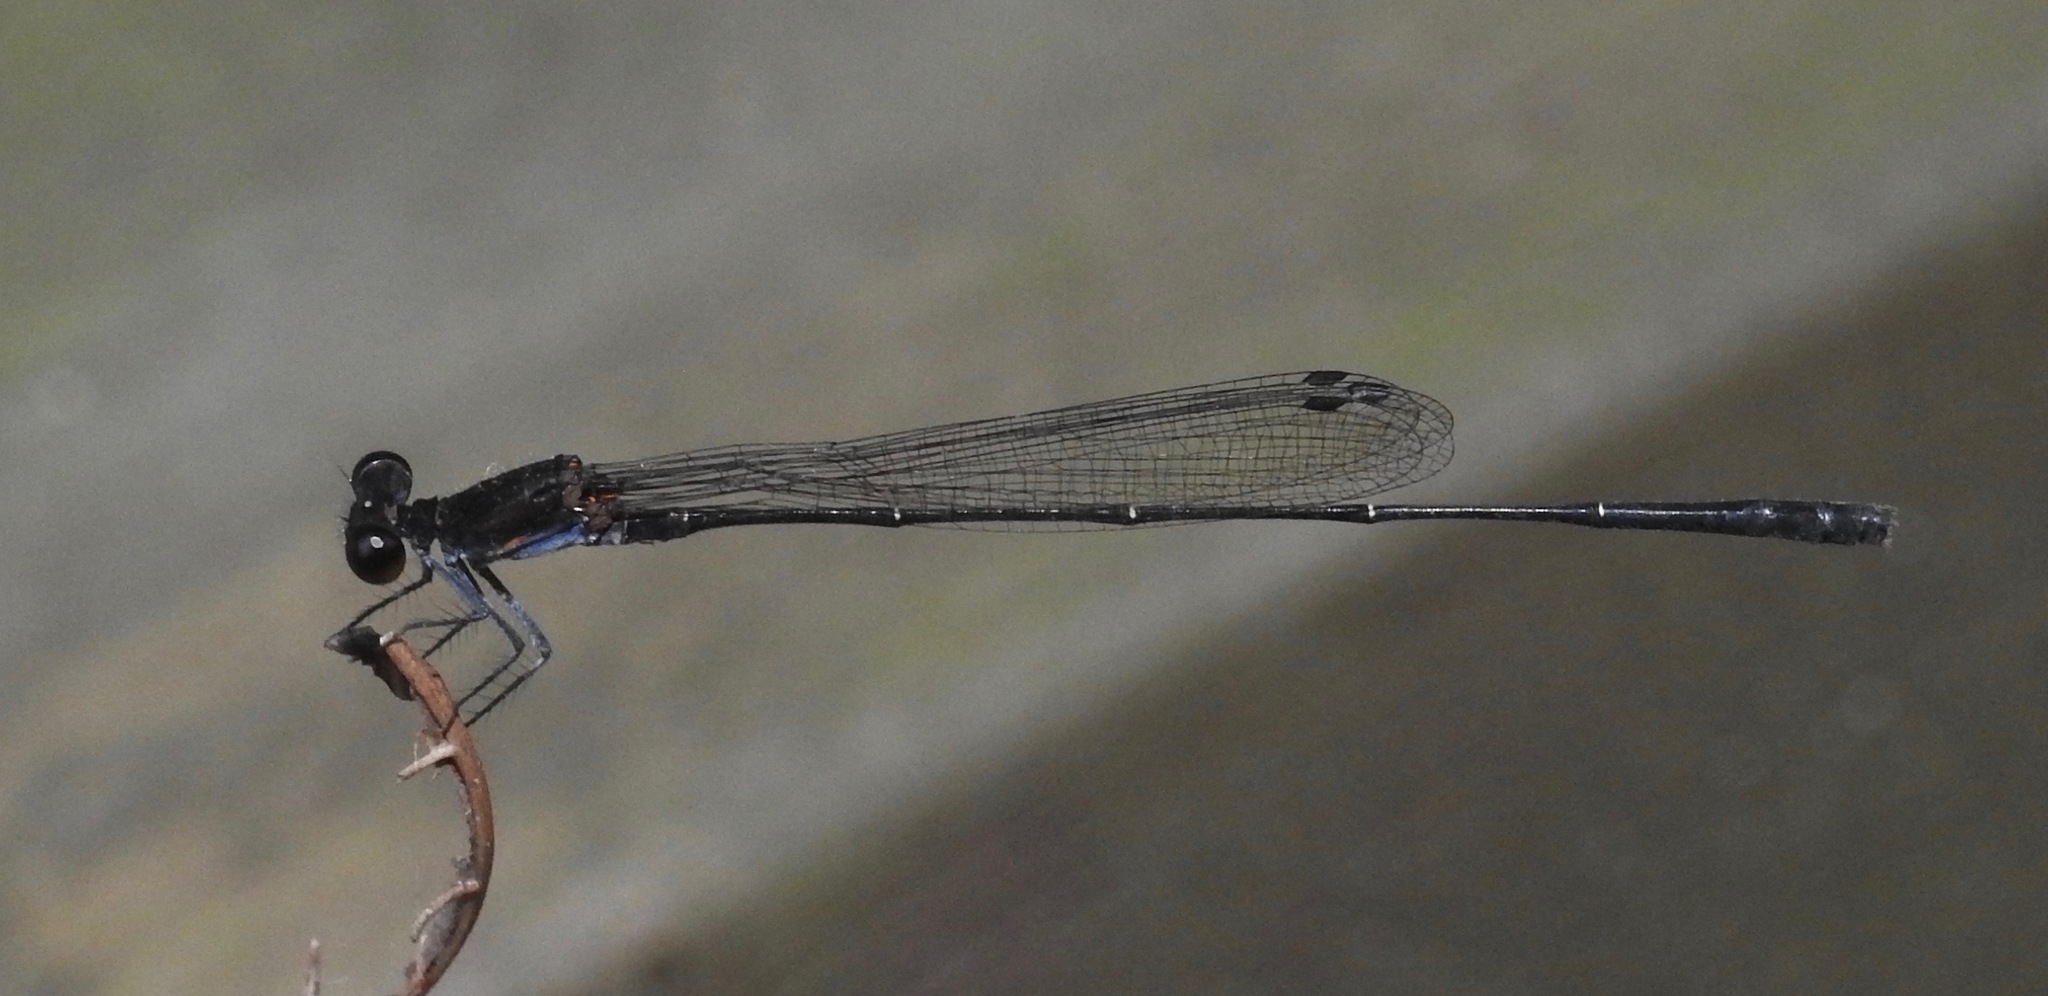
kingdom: Animalia
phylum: Arthropoda
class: Insecta
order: Odonata
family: Platycnemididae
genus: Prodasineura
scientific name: Prodasineura autumnalis
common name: Black threadtail
